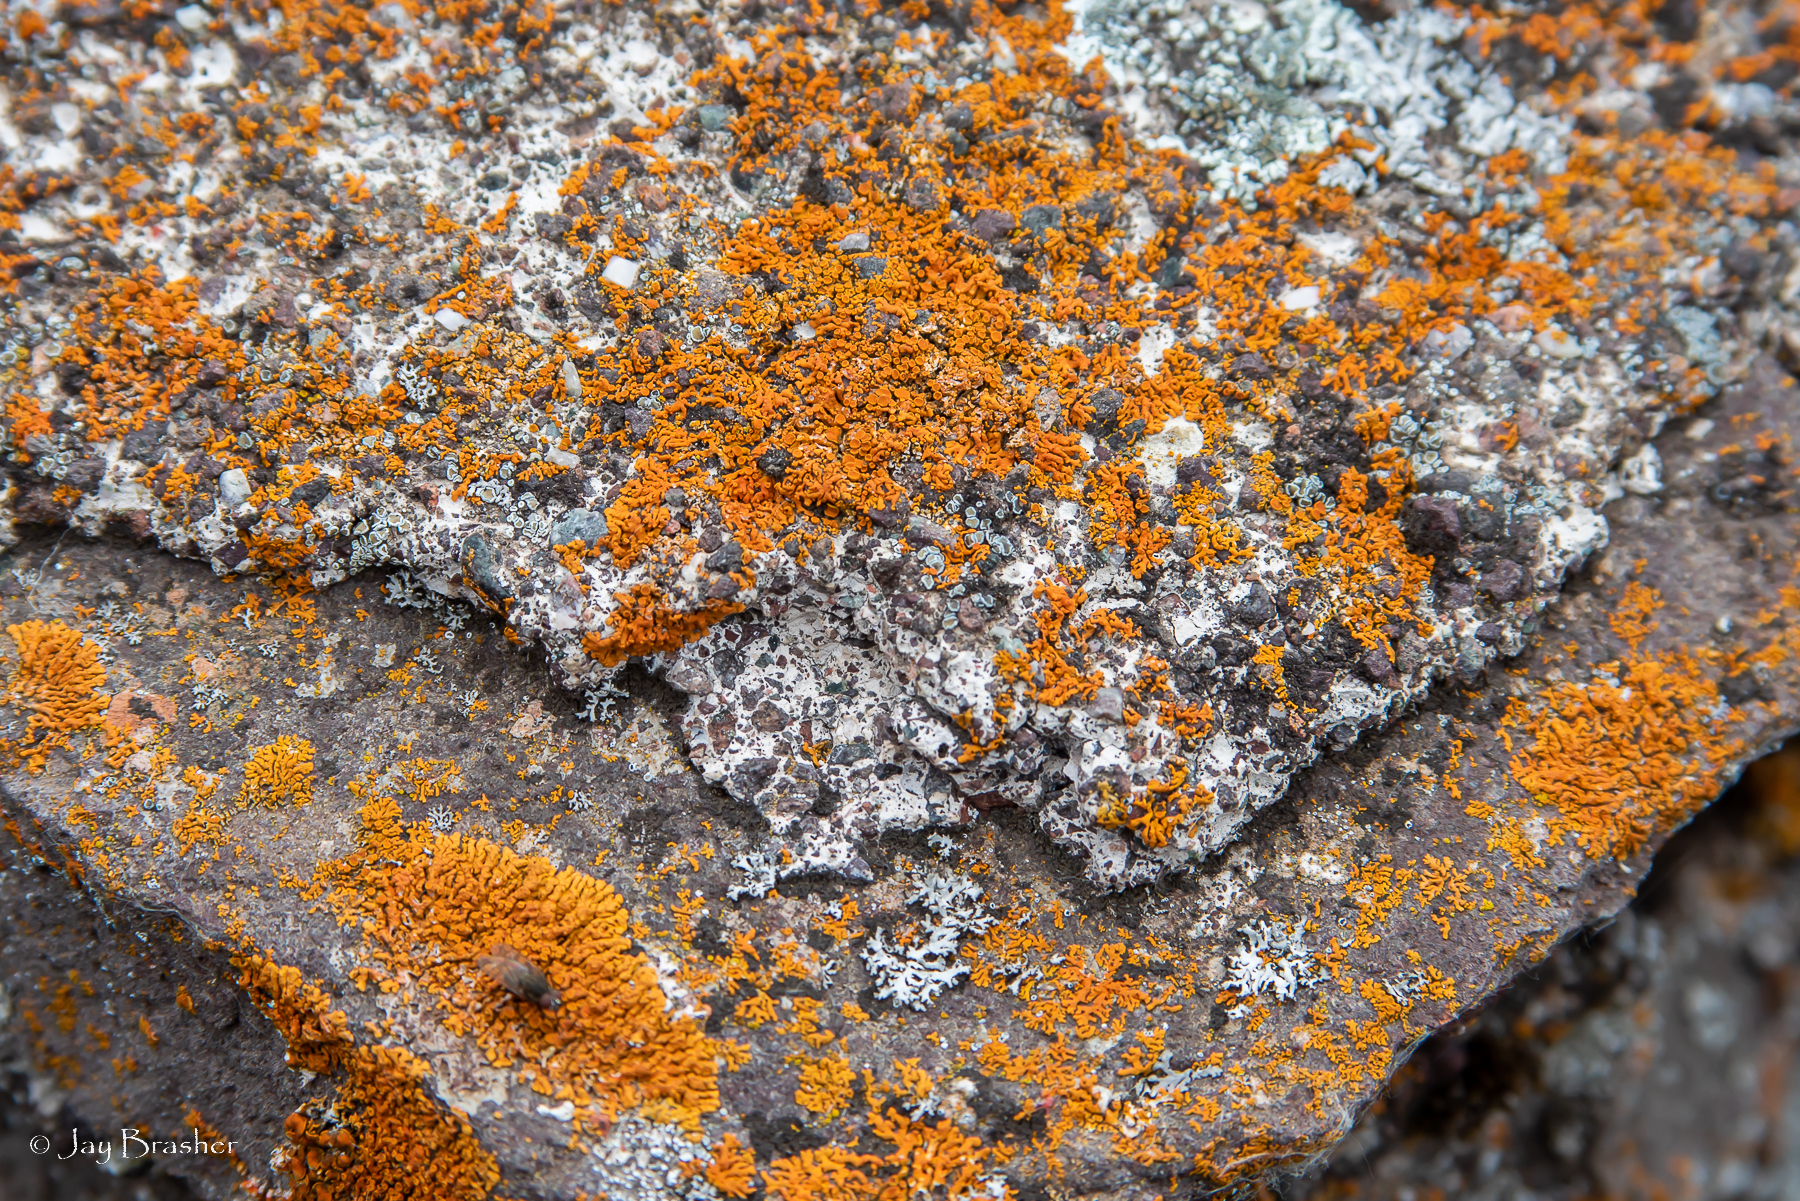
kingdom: Fungi
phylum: Ascomycota
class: Lecanoromycetes
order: Teloschistales
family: Teloschistaceae
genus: Xanthoria
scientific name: Xanthoria elegans
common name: Elegant sunburst lichen
